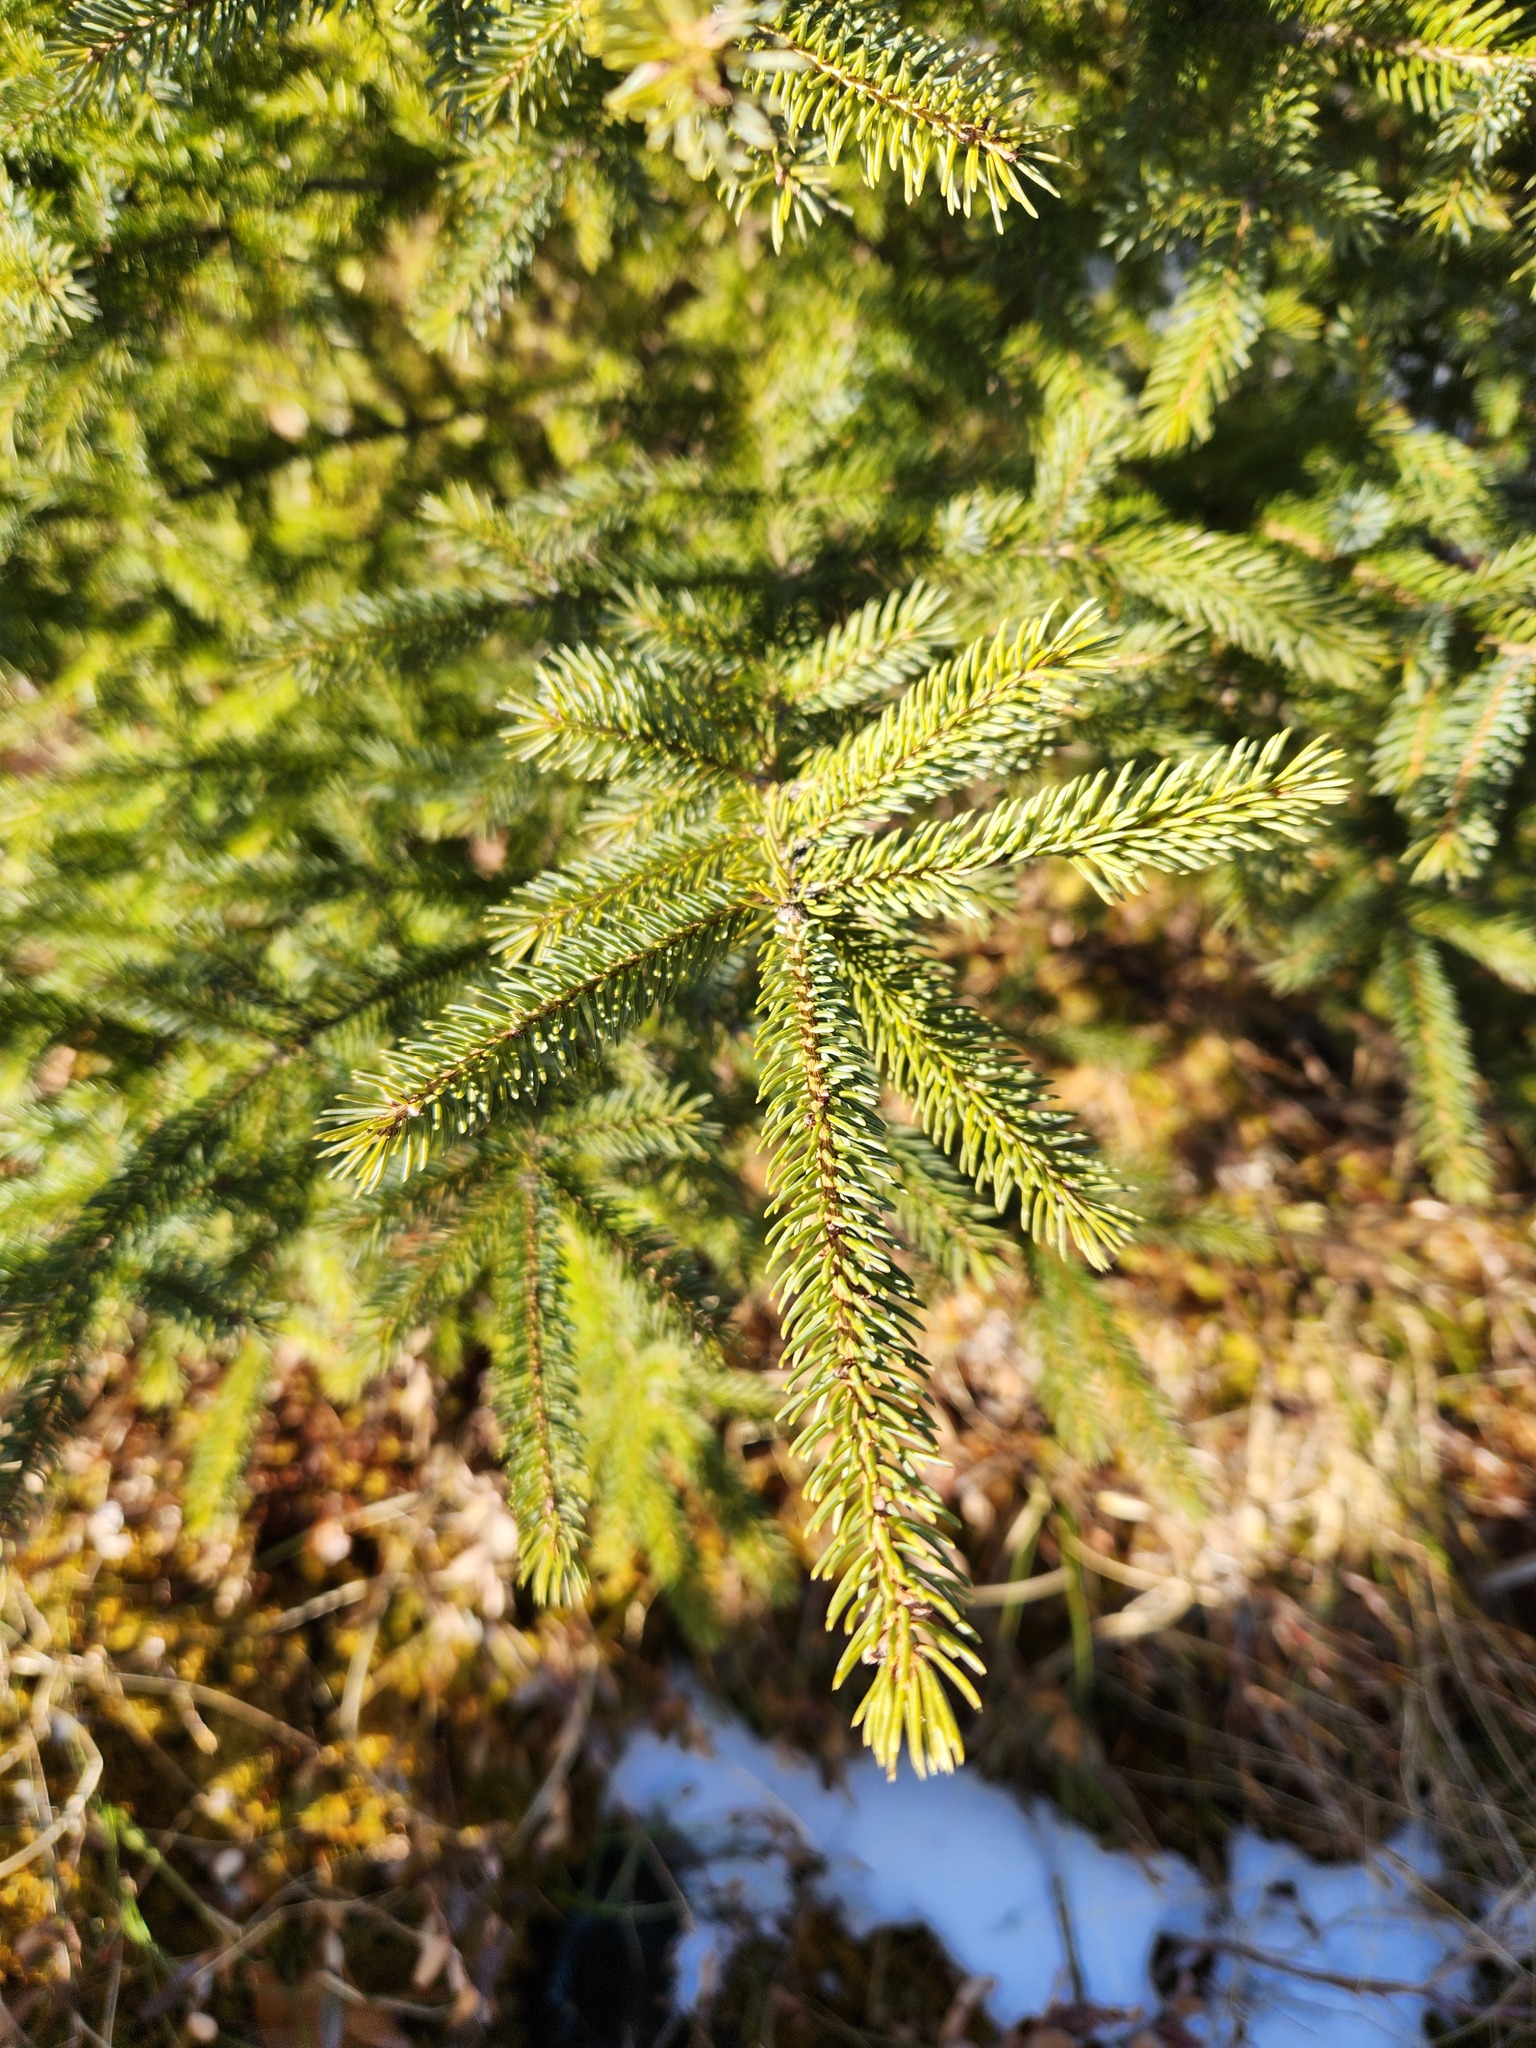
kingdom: Plantae
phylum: Tracheophyta
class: Pinopsida
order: Pinales
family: Pinaceae
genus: Picea
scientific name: Picea mariana
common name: Black spruce
